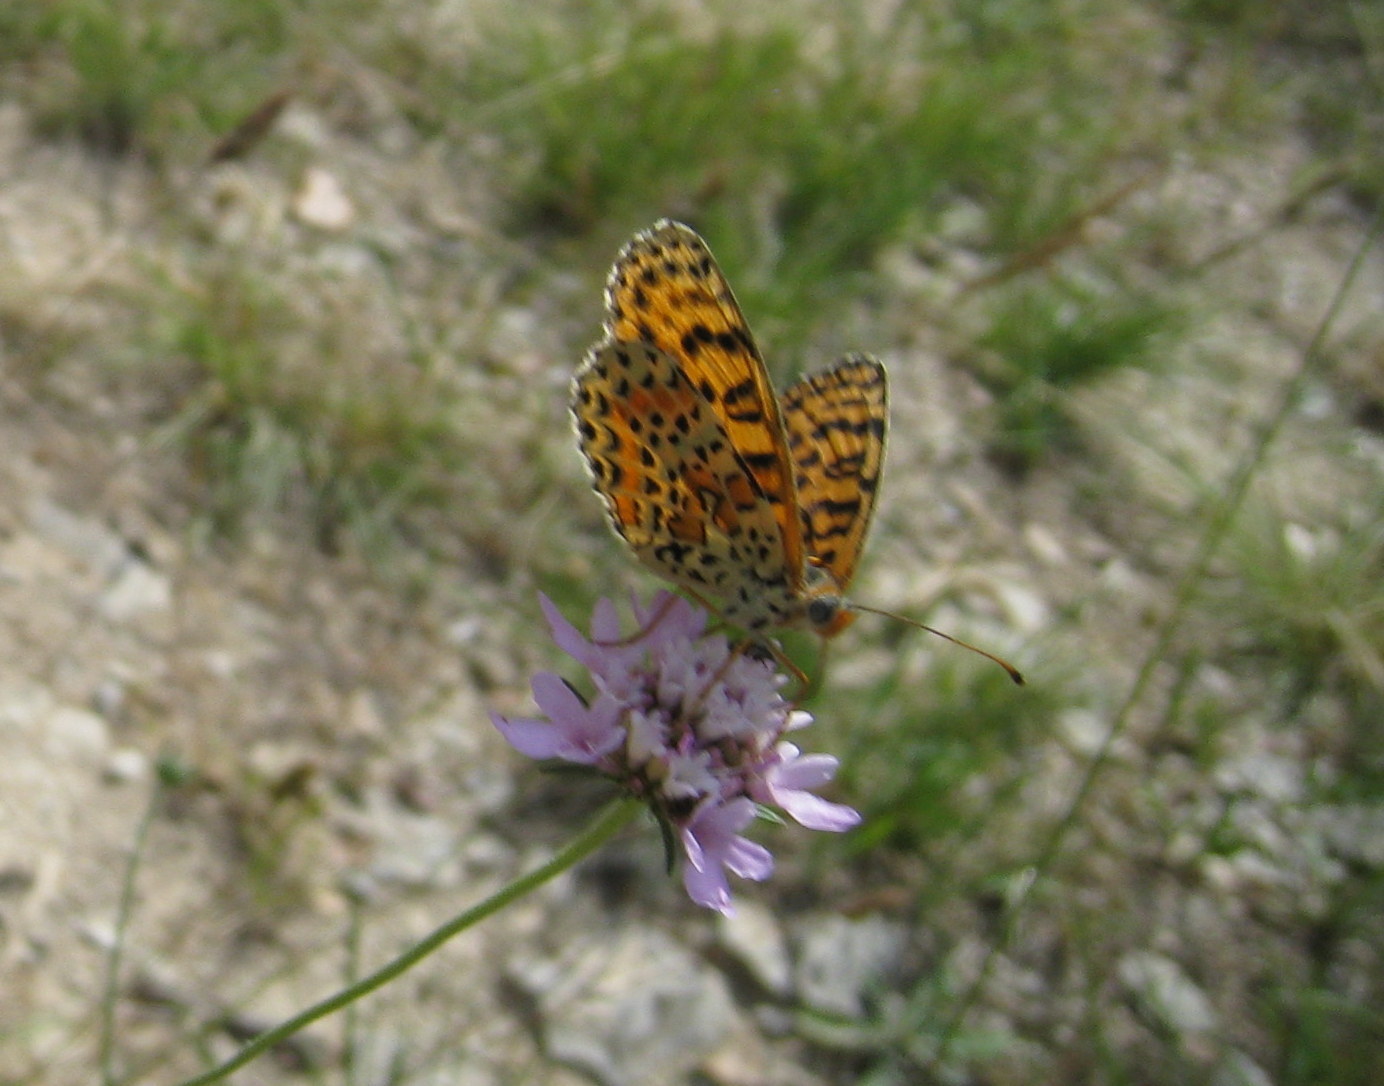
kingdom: Animalia
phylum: Arthropoda
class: Insecta
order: Lepidoptera
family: Nymphalidae
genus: Melitaea
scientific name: Melitaea didyma
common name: Spotted fritillary
